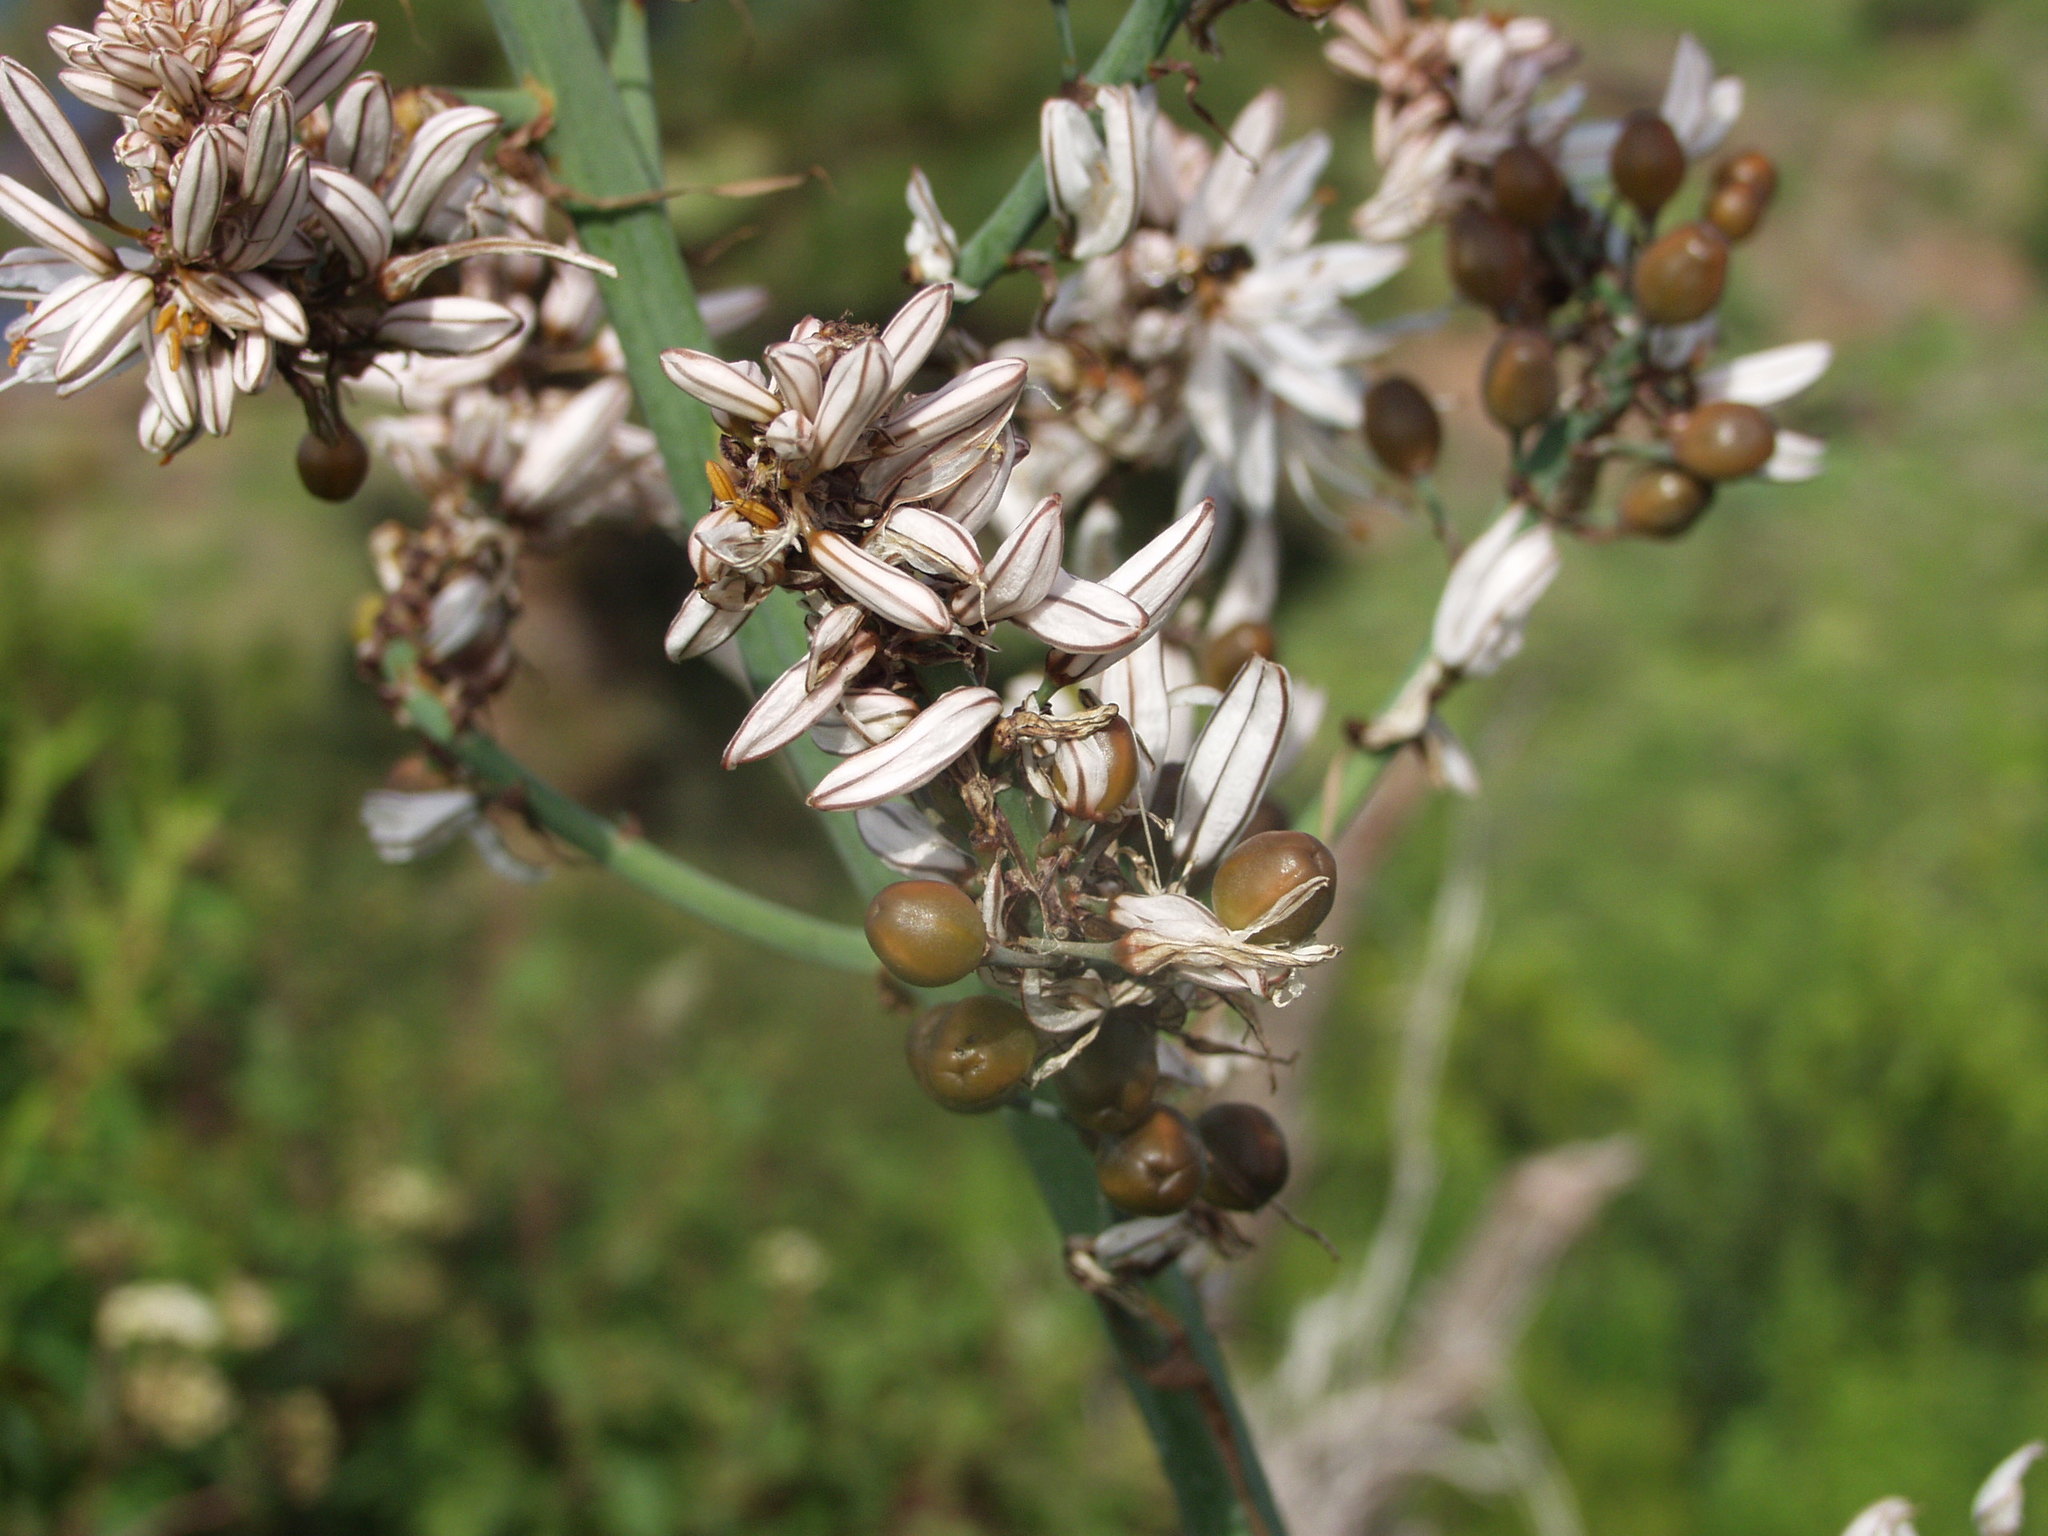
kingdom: Plantae
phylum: Tracheophyta
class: Liliopsida
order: Asparagales
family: Asphodelaceae
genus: Asphodelus
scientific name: Asphodelus ramosus
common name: Silverrod
